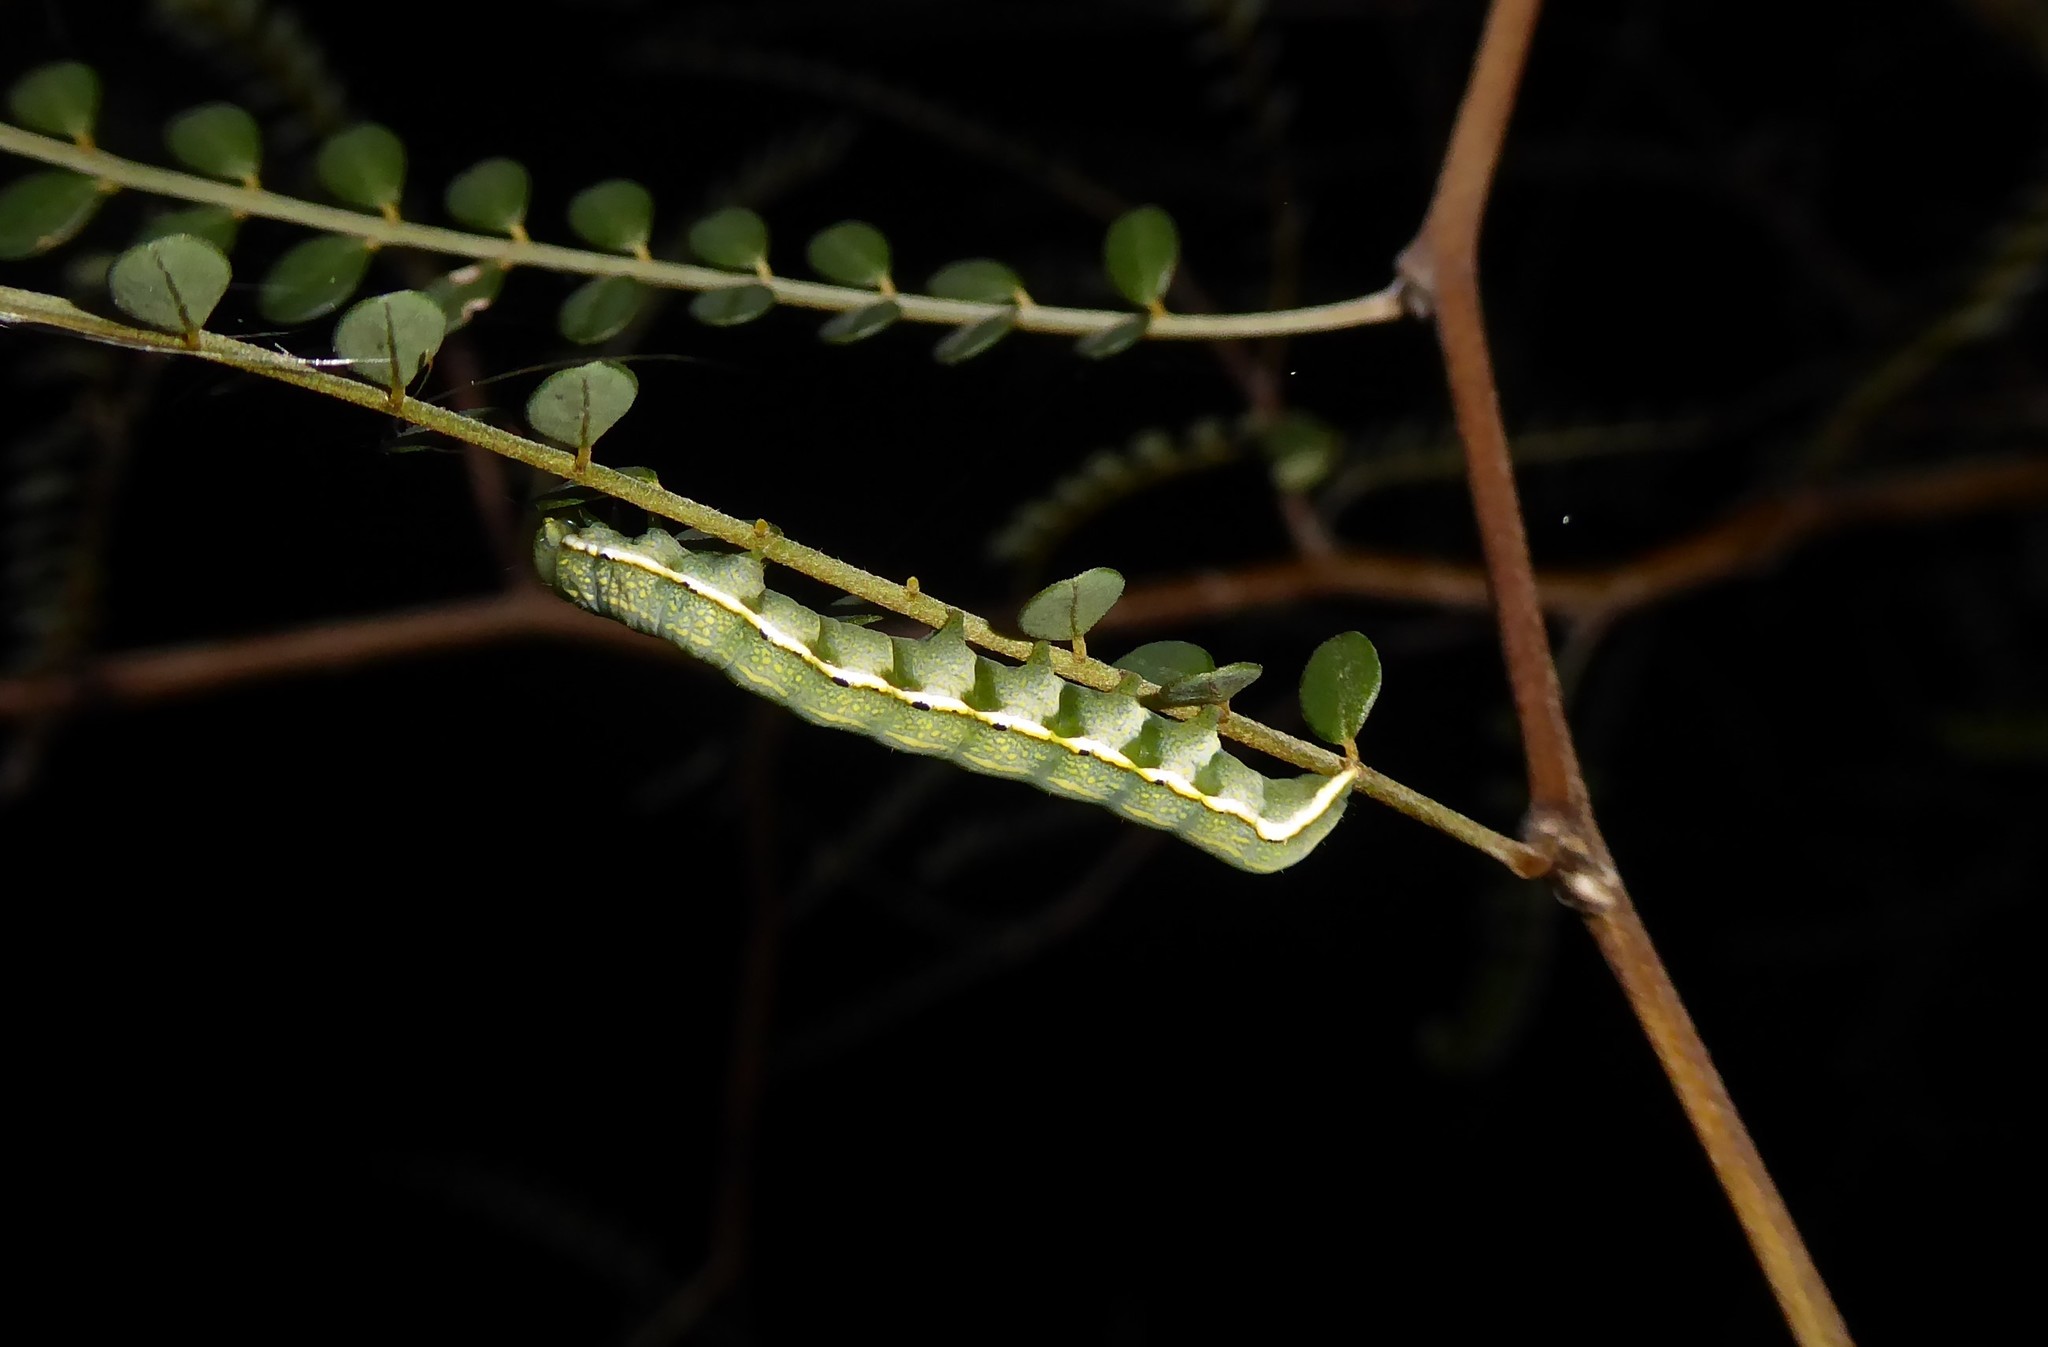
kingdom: Animalia
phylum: Arthropoda
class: Insecta
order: Lepidoptera
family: Noctuidae
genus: Meterana
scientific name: Meterana decorata
